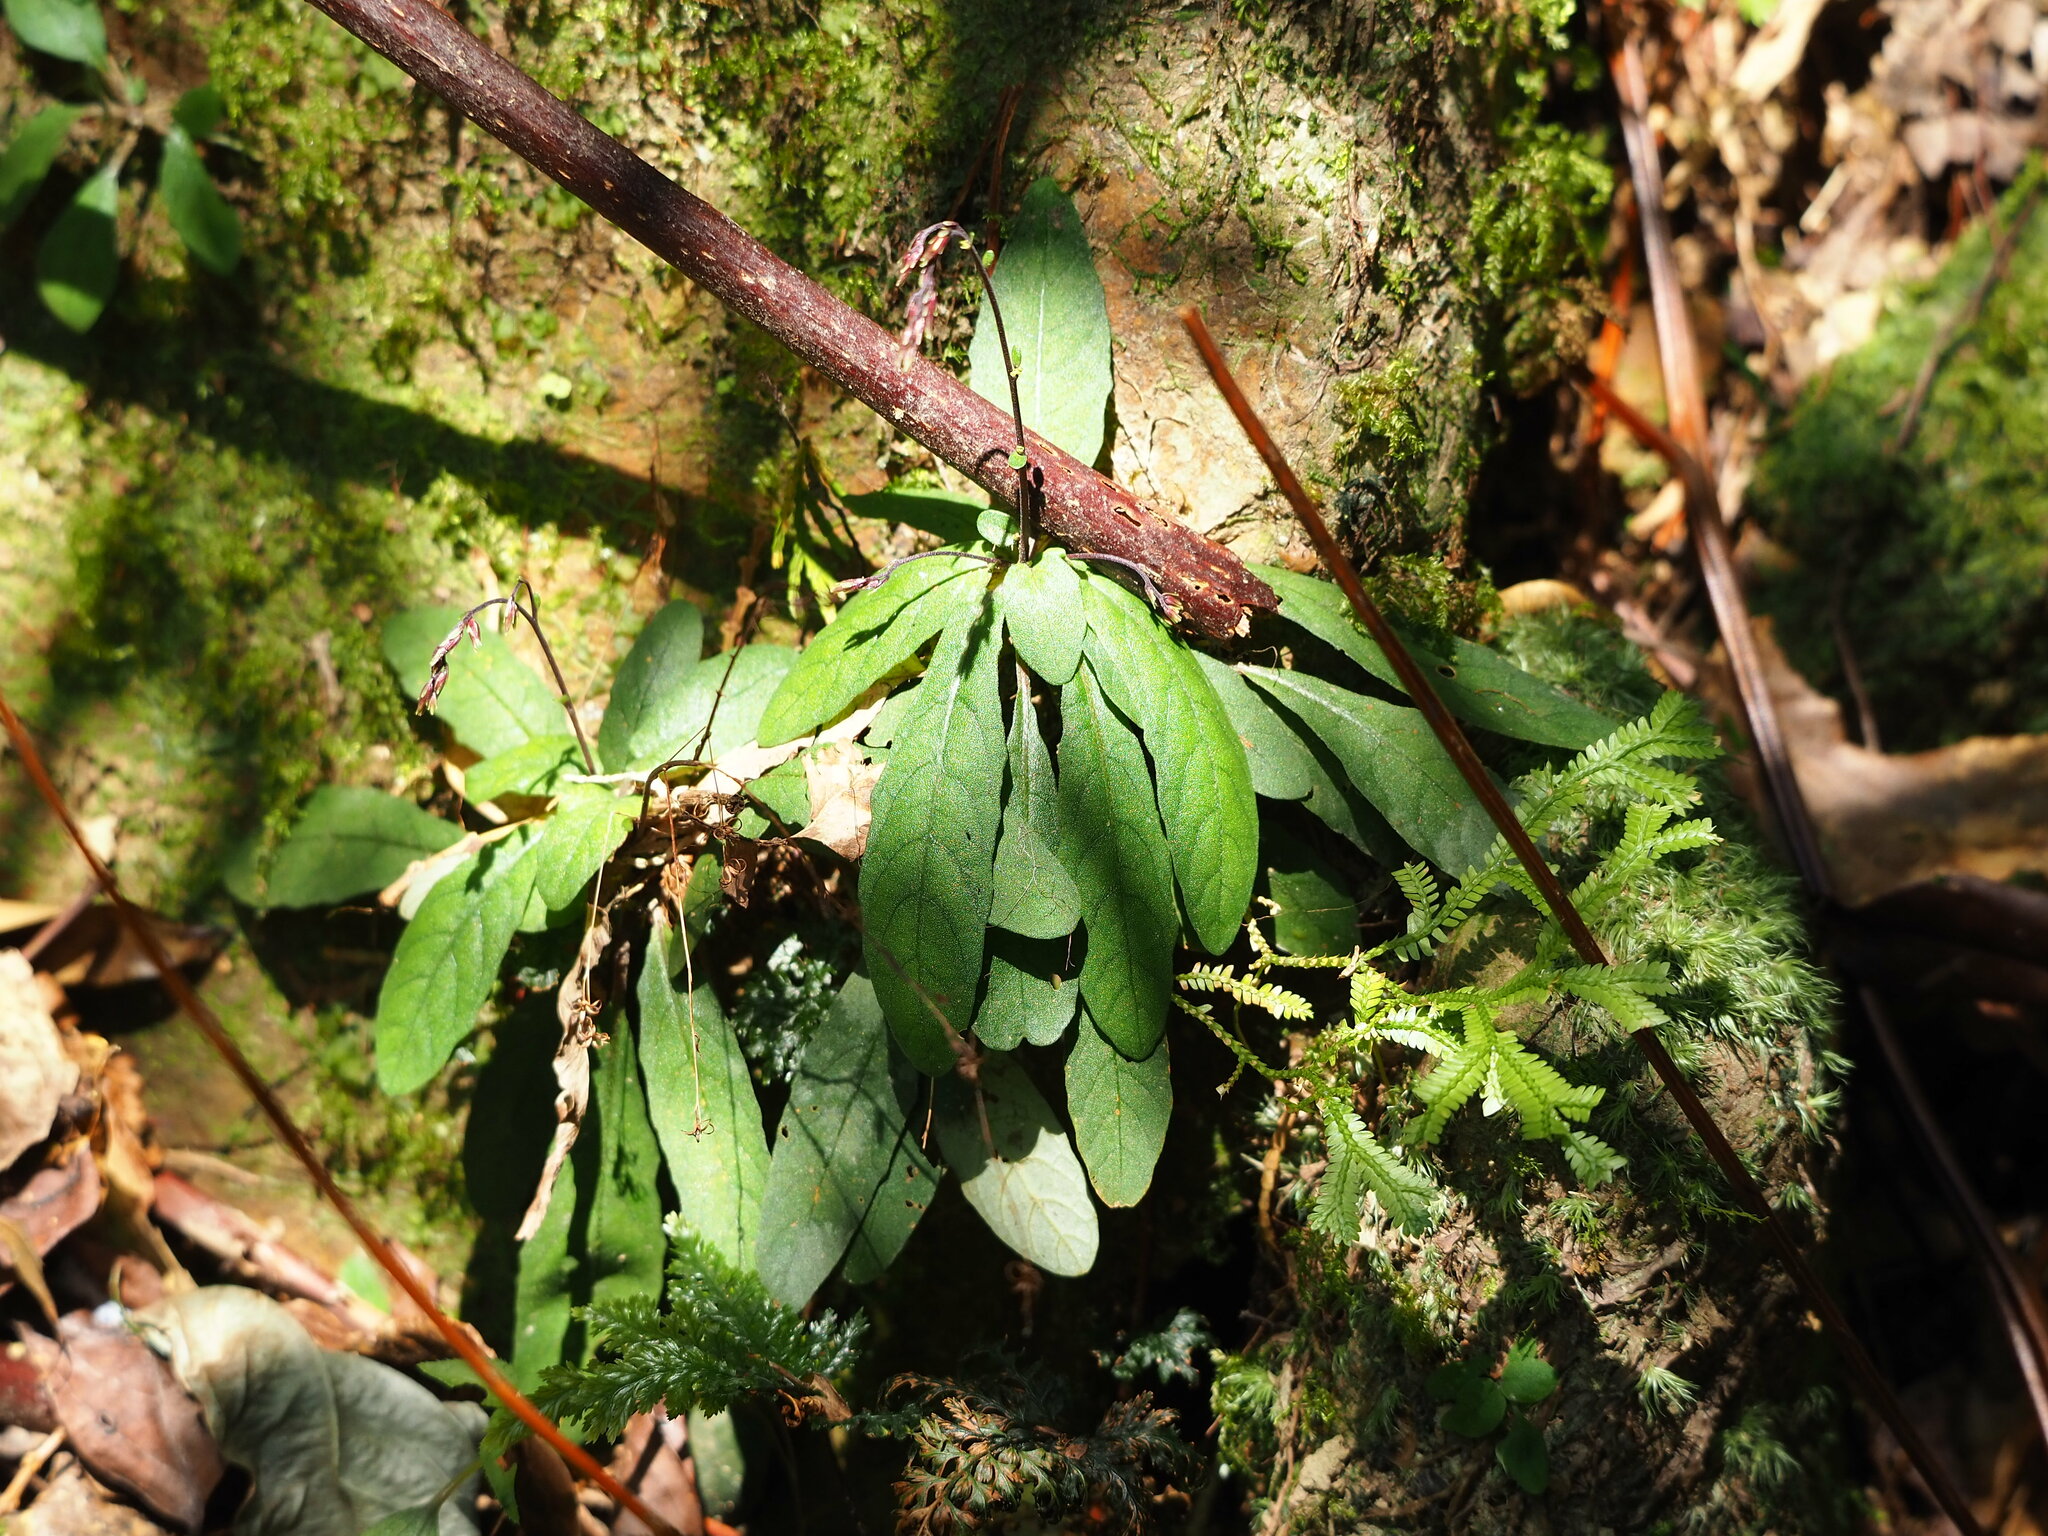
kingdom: Plantae
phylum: Tracheophyta
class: Magnoliopsida
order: Lamiales
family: Acanthaceae
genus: Staurogyne
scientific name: Staurogyne concinnula
